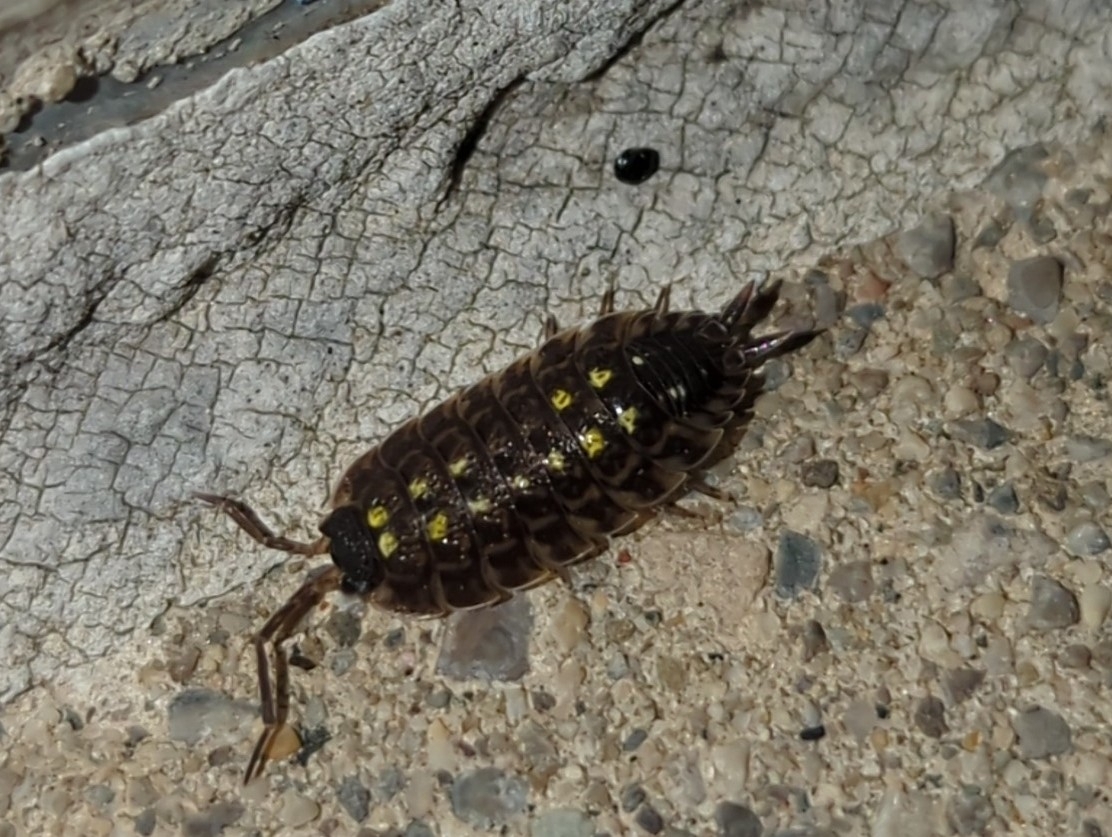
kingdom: Animalia
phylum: Arthropoda
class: Malacostraca
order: Isopoda
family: Porcellionidae
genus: Porcellio
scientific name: Porcellio spinicornis
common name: Painted woodlouse
